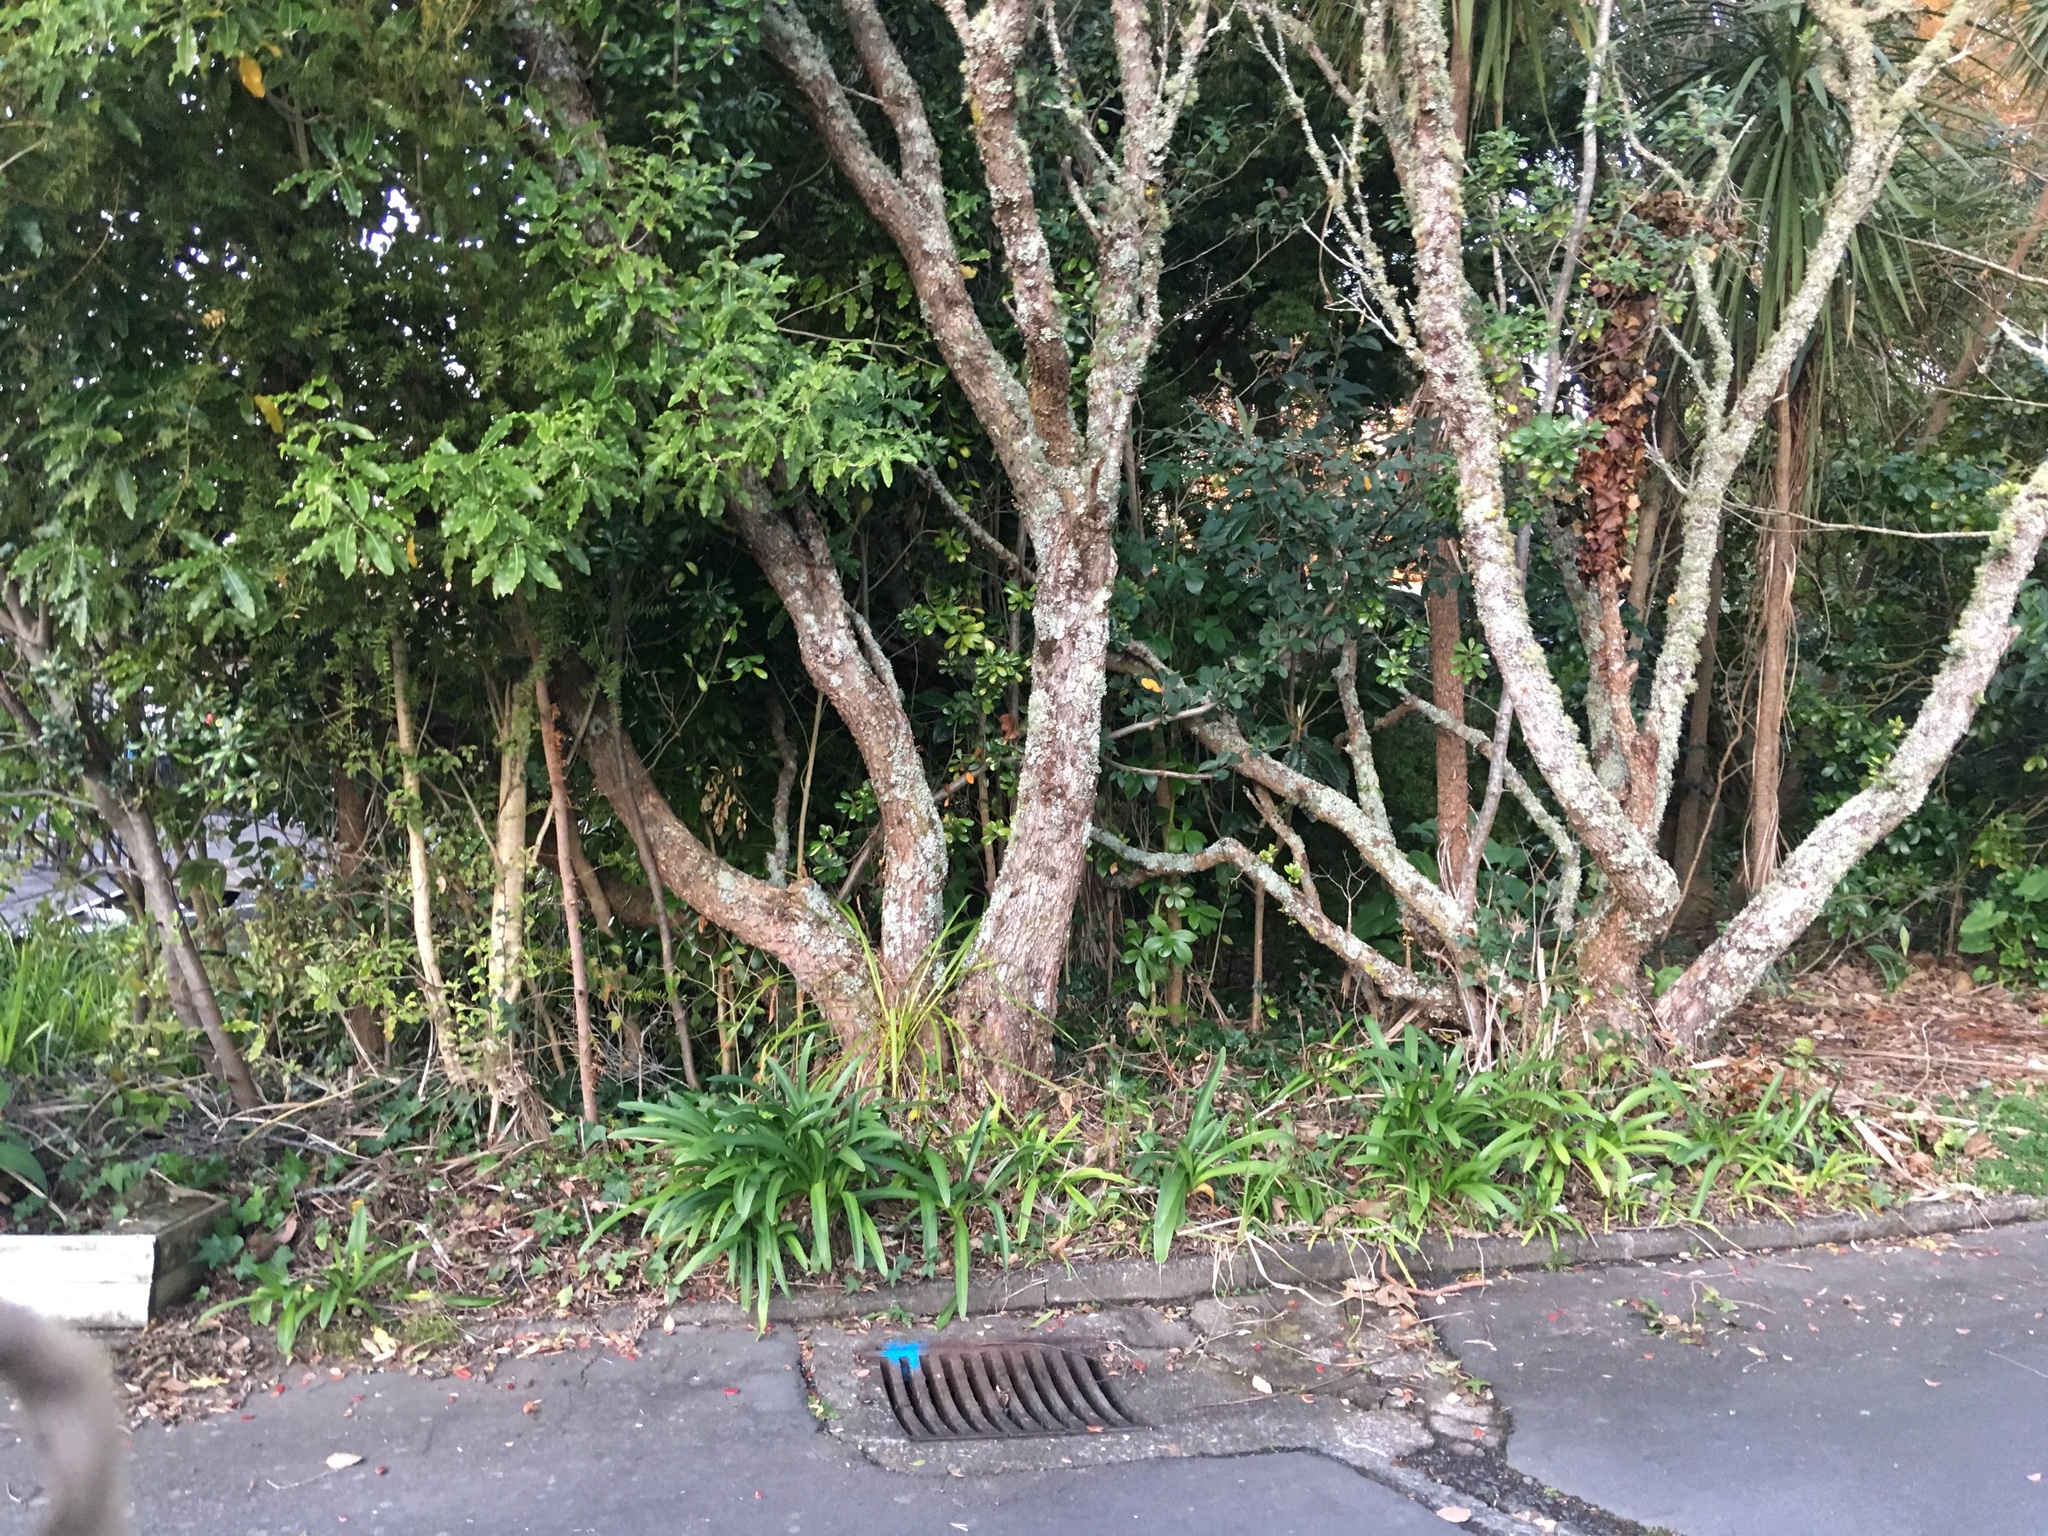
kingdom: Plantae
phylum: Tracheophyta
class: Liliopsida
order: Asparagales
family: Amaryllidaceae
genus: Agapanthus
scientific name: Agapanthus praecox
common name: African-lily
